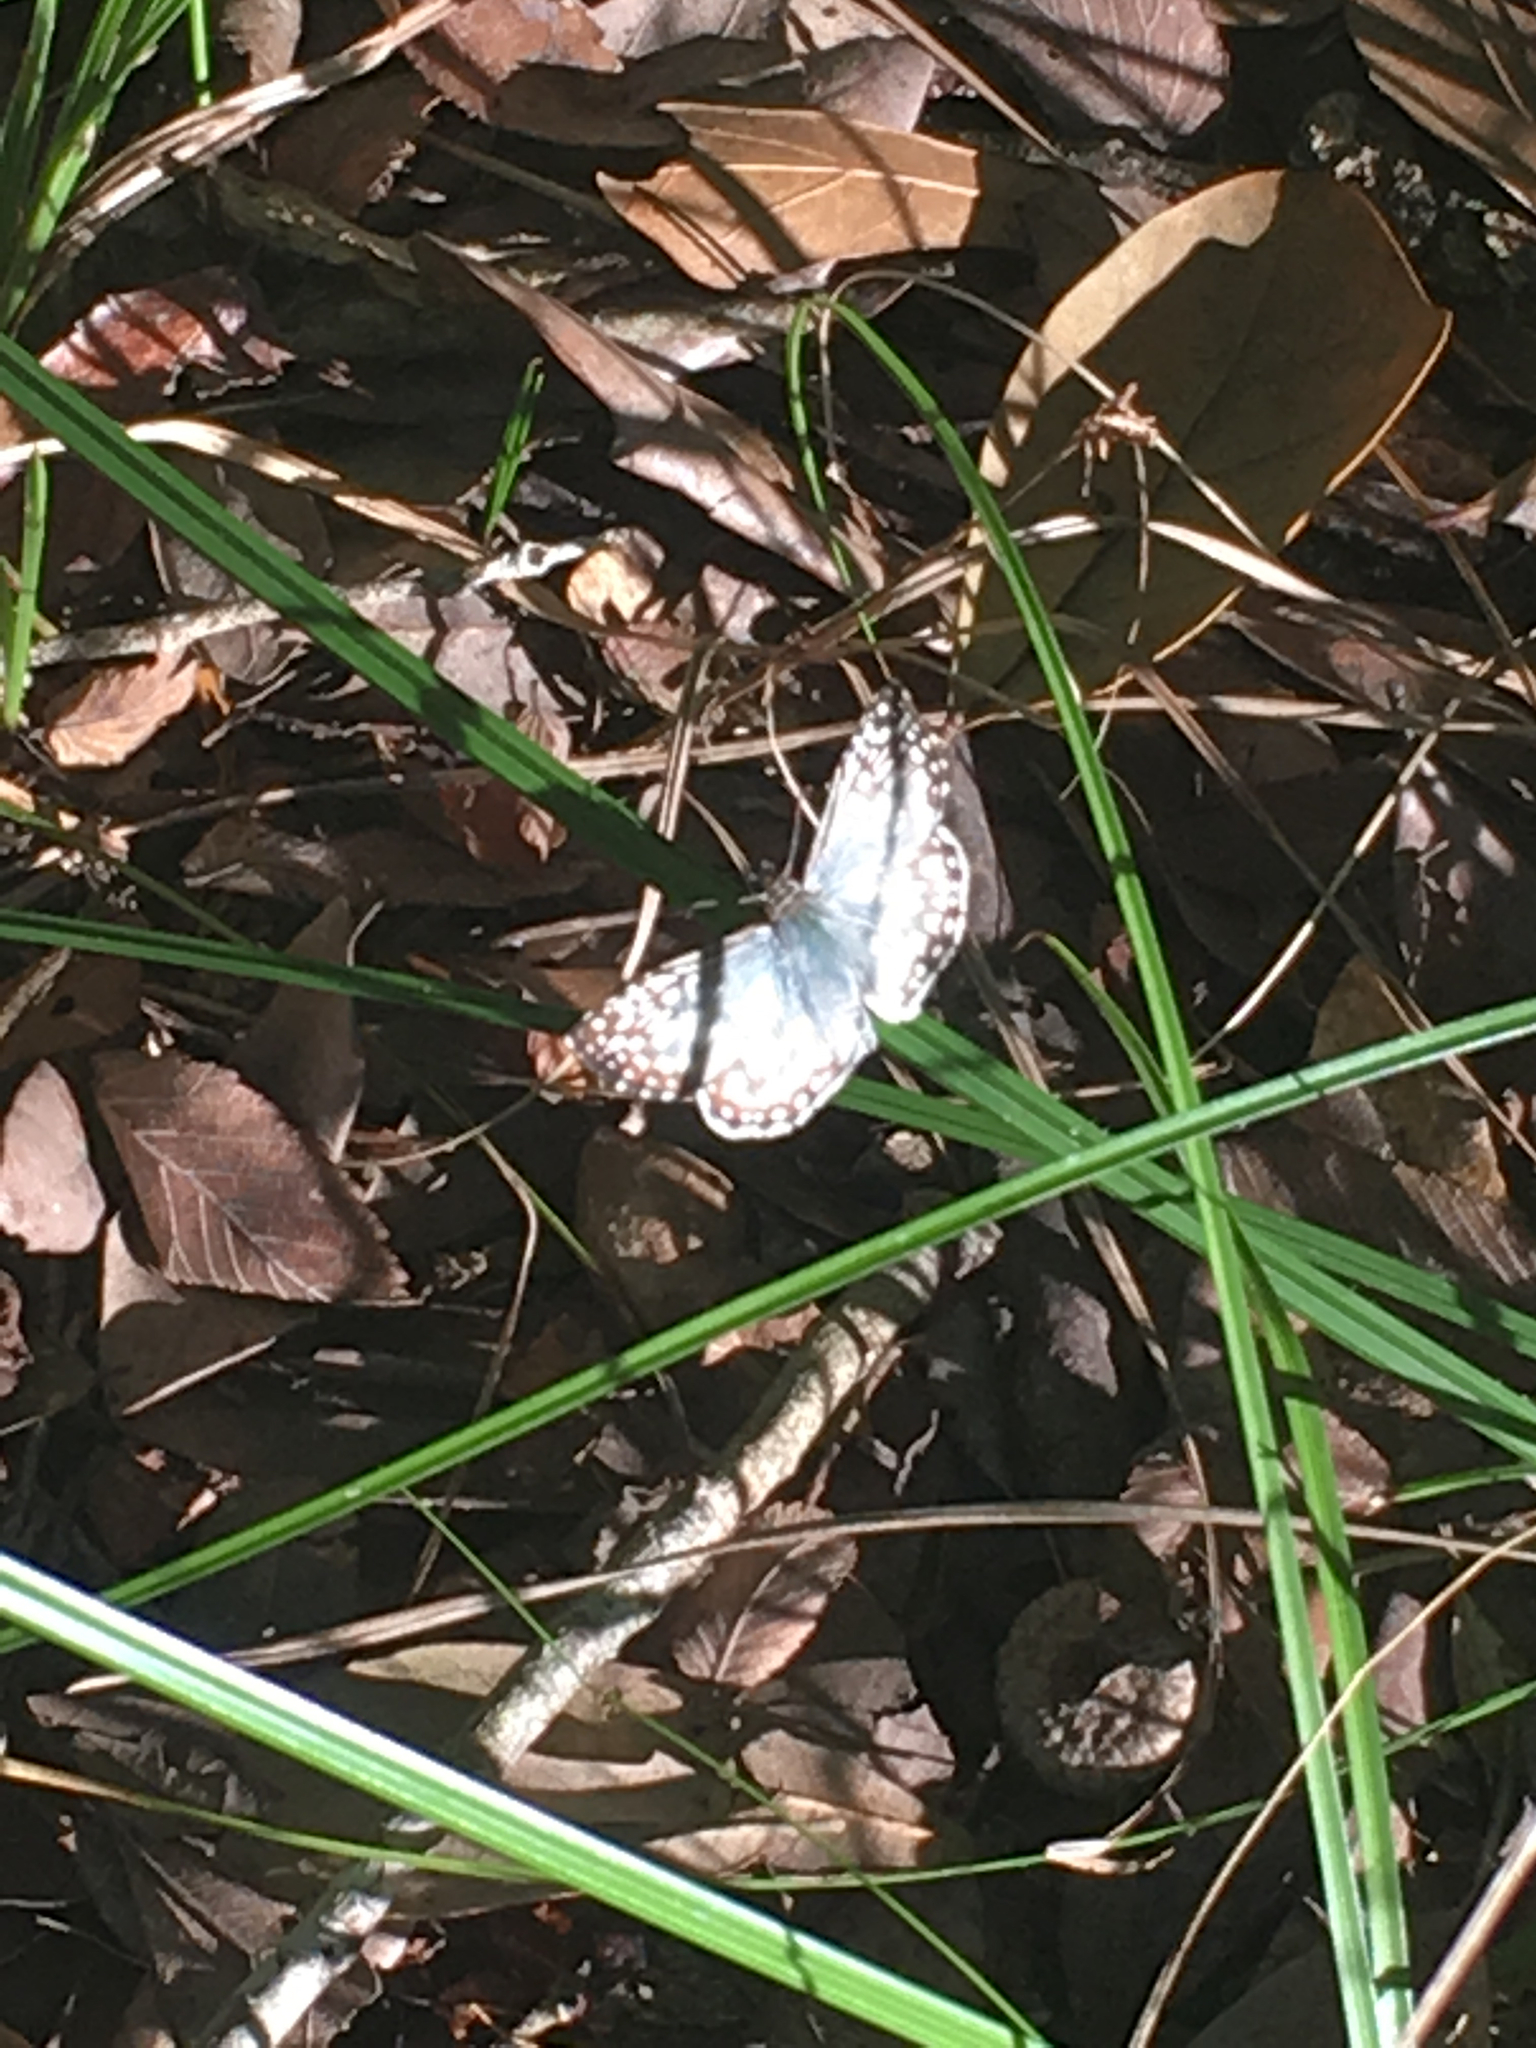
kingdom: Animalia
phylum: Arthropoda
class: Insecta
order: Lepidoptera
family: Hesperiidae
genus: Pyrgus
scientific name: Pyrgus oileus
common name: Tropical checkered-skipper
